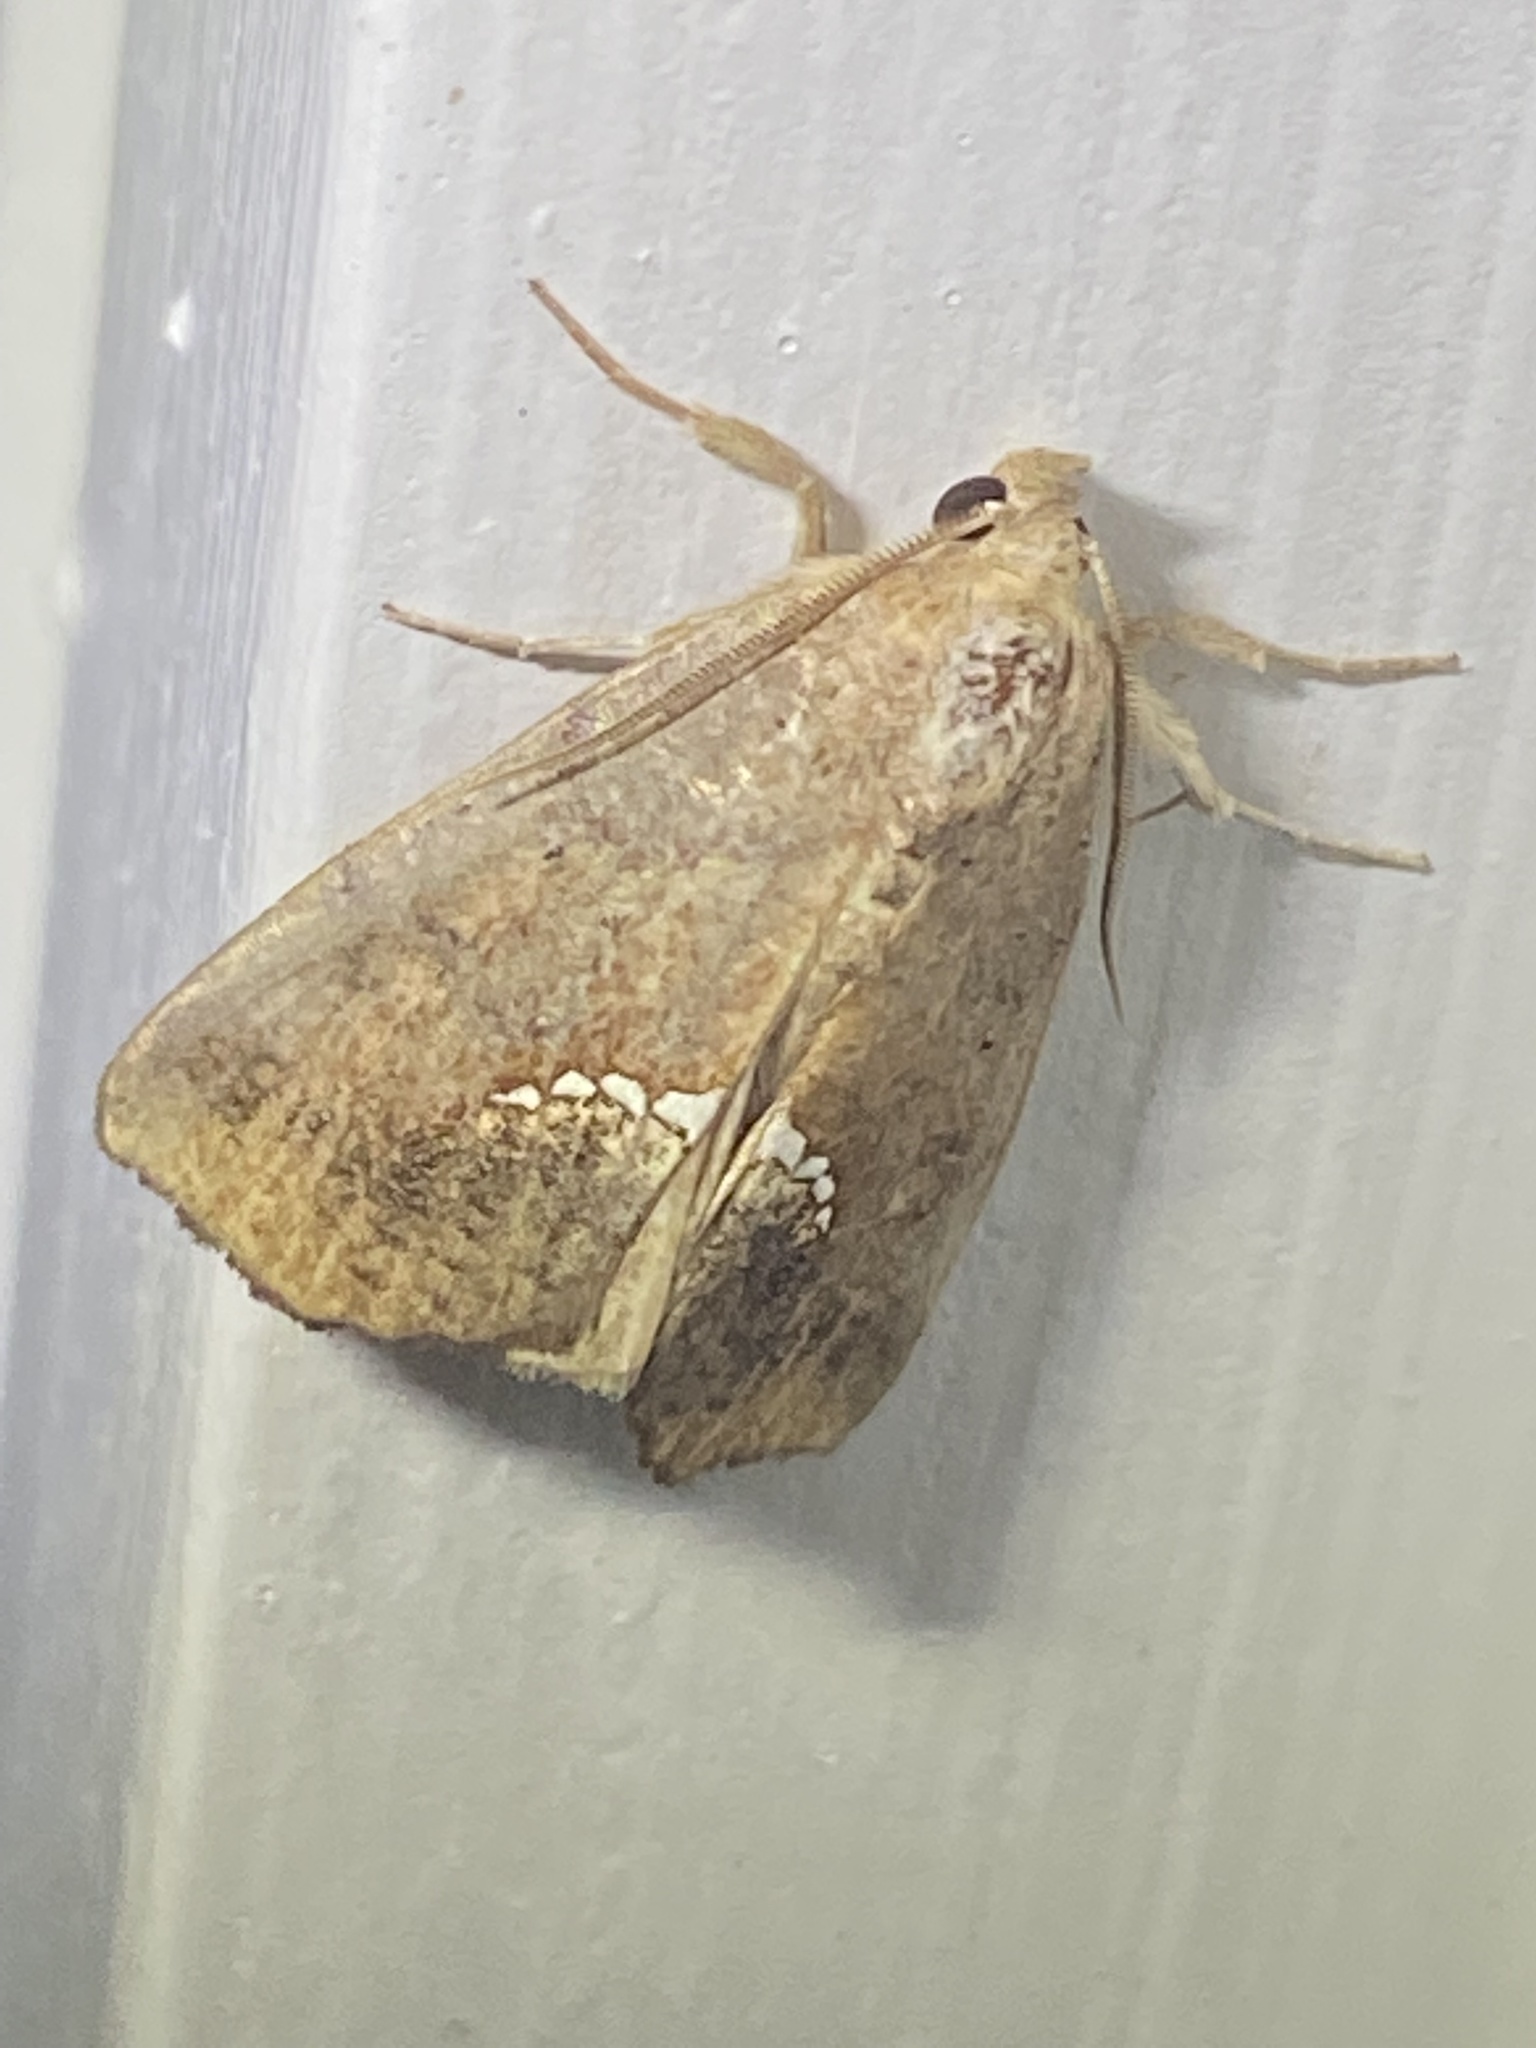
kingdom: Animalia
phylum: Arthropoda
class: Insecta
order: Lepidoptera
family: Erebidae
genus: Hypsoropha
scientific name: Hypsoropha hormos
